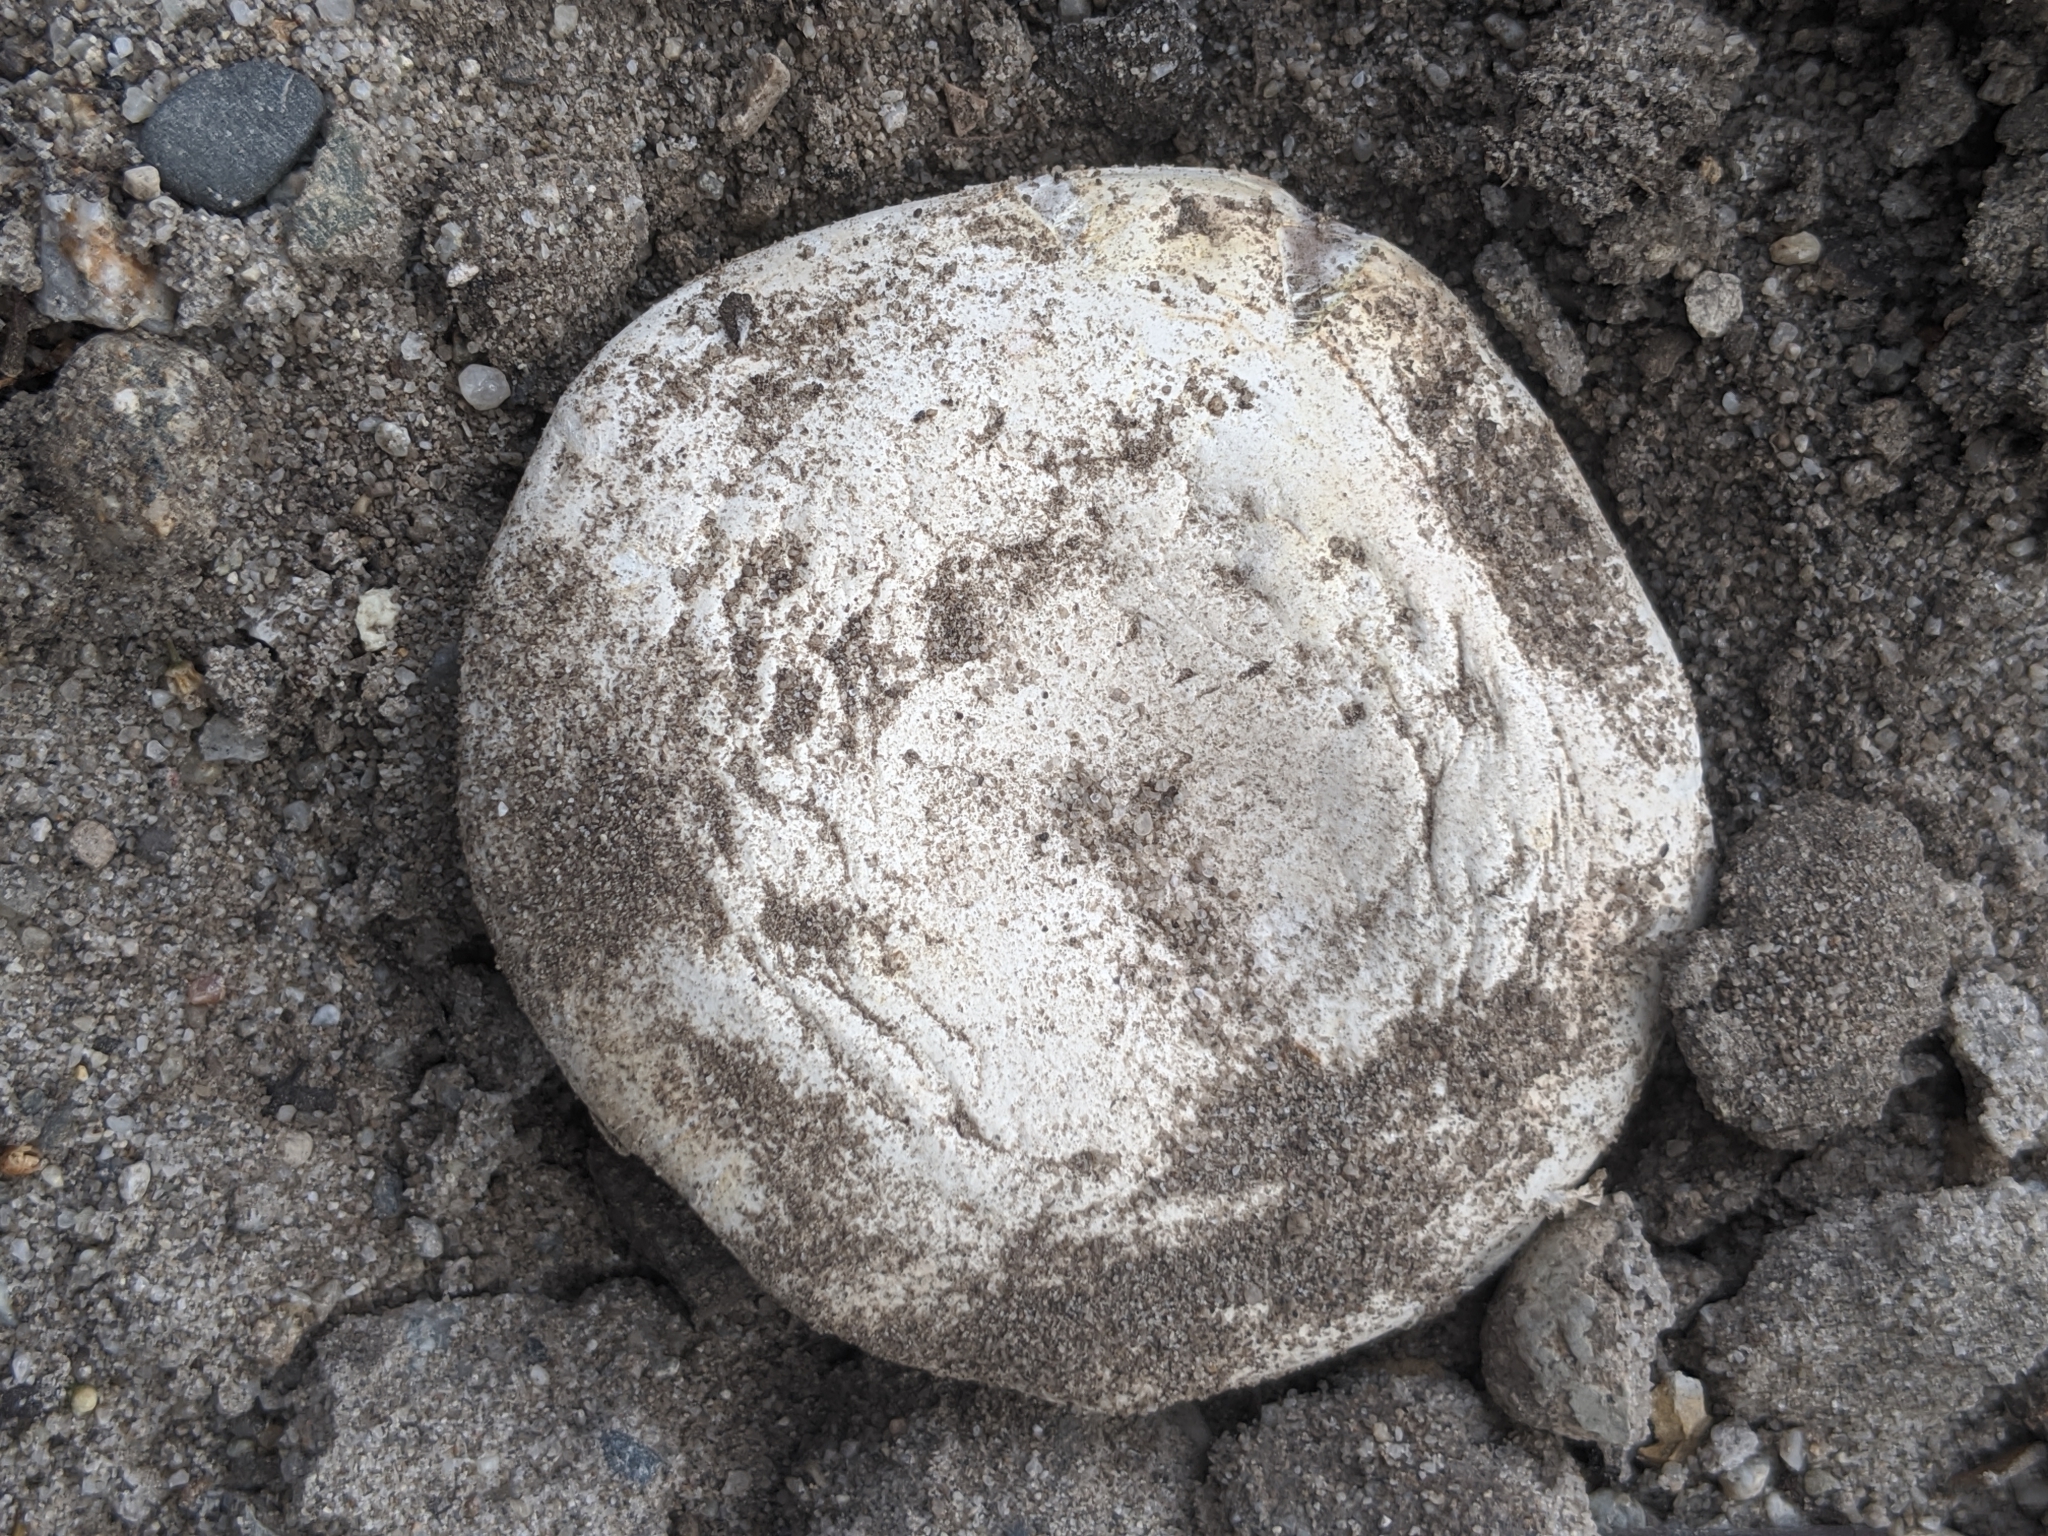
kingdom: Fungi
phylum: Basidiomycota
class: Agaricomycetes
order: Agaricales
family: Agaricaceae
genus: Agaricus
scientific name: Agaricus bitorquis
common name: Pavement mushroom
